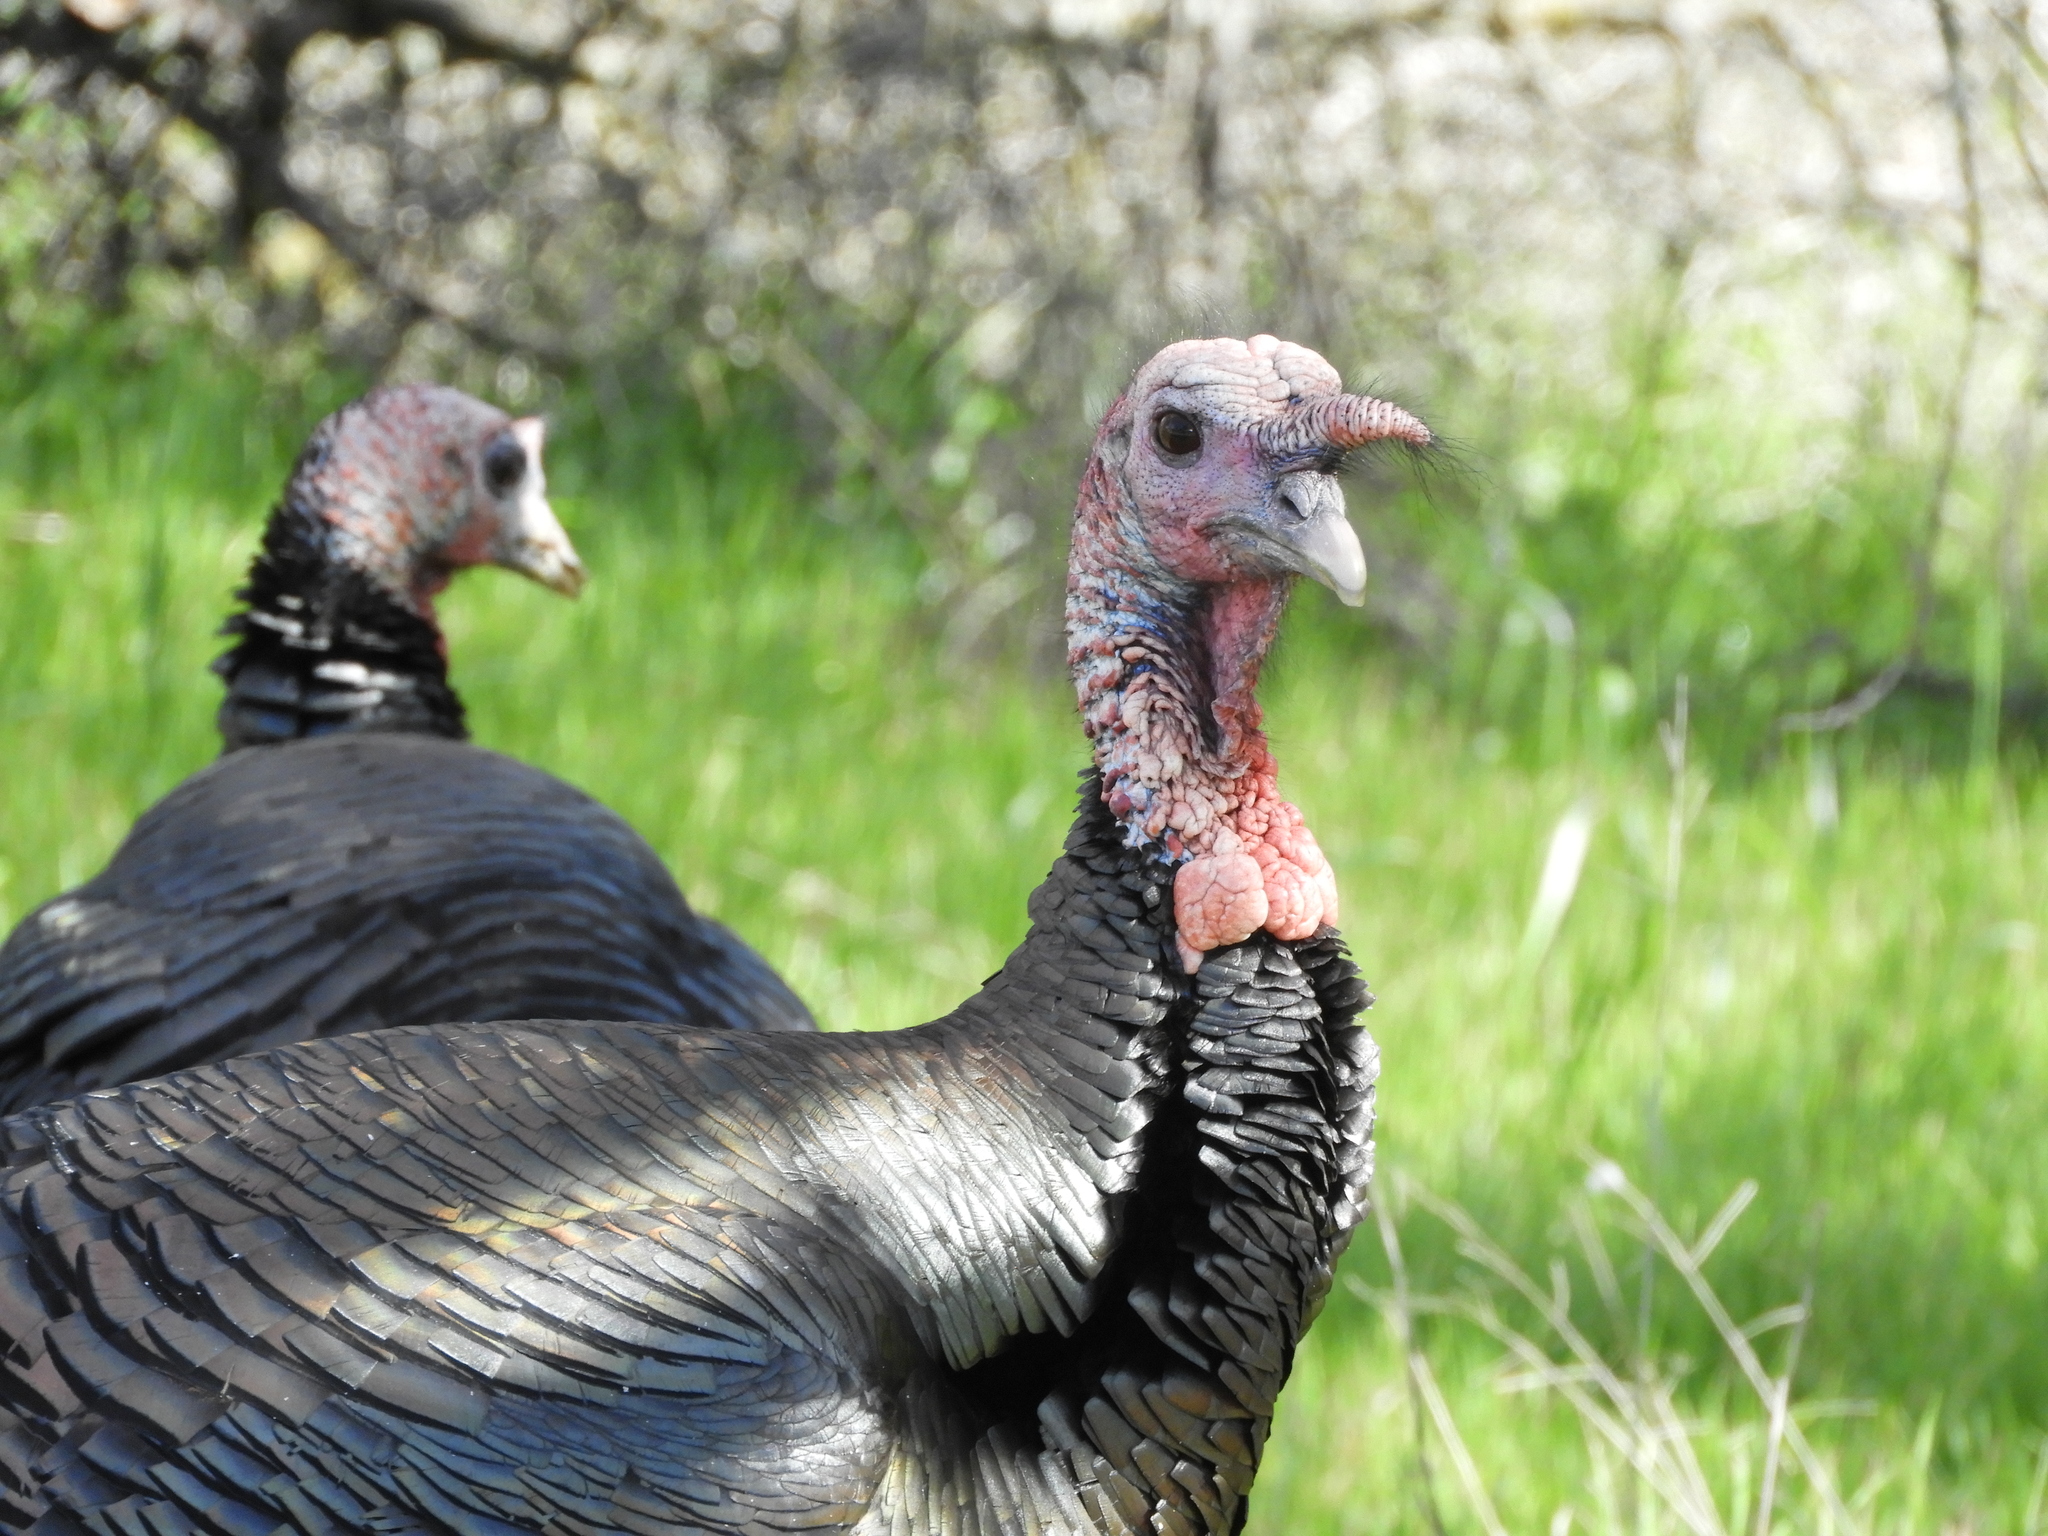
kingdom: Animalia
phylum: Chordata
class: Aves
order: Galliformes
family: Phasianidae
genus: Meleagris
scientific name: Meleagris gallopavo
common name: Wild turkey
